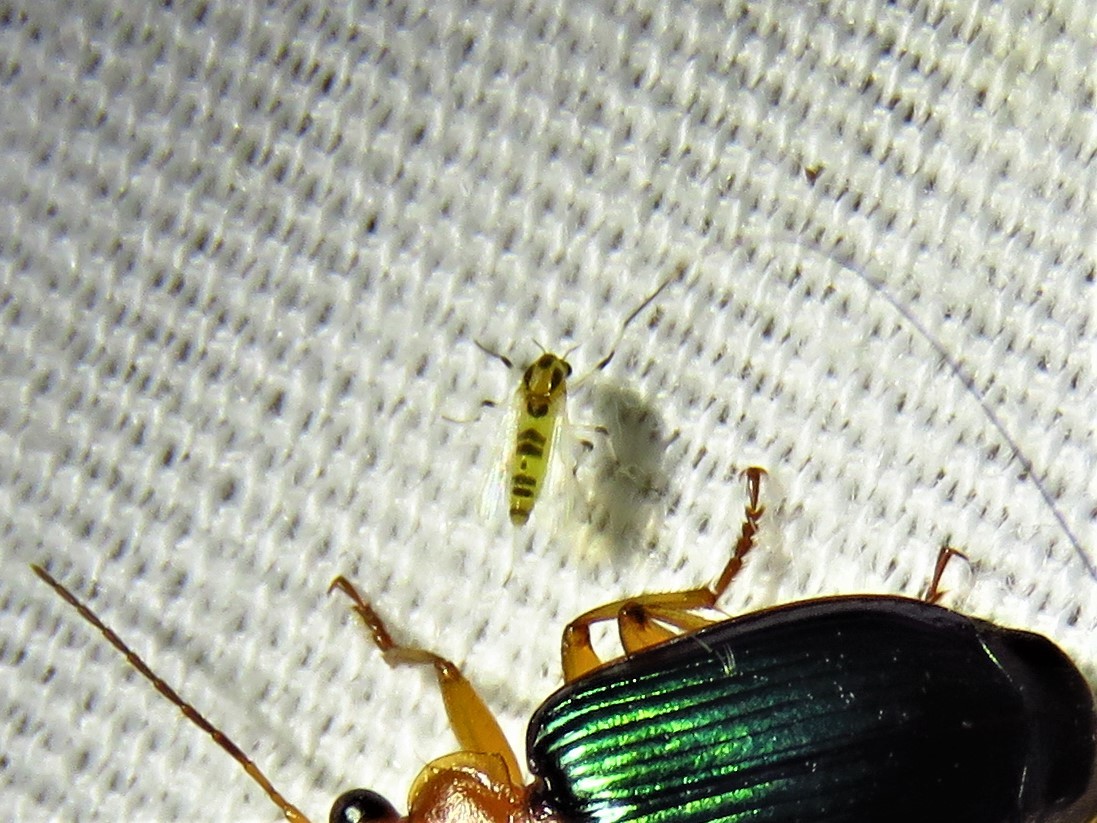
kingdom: Animalia
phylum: Arthropoda
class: Insecta
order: Diptera
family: Chironomidae
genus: Cricotopus
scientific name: Cricotopus sylvestris
